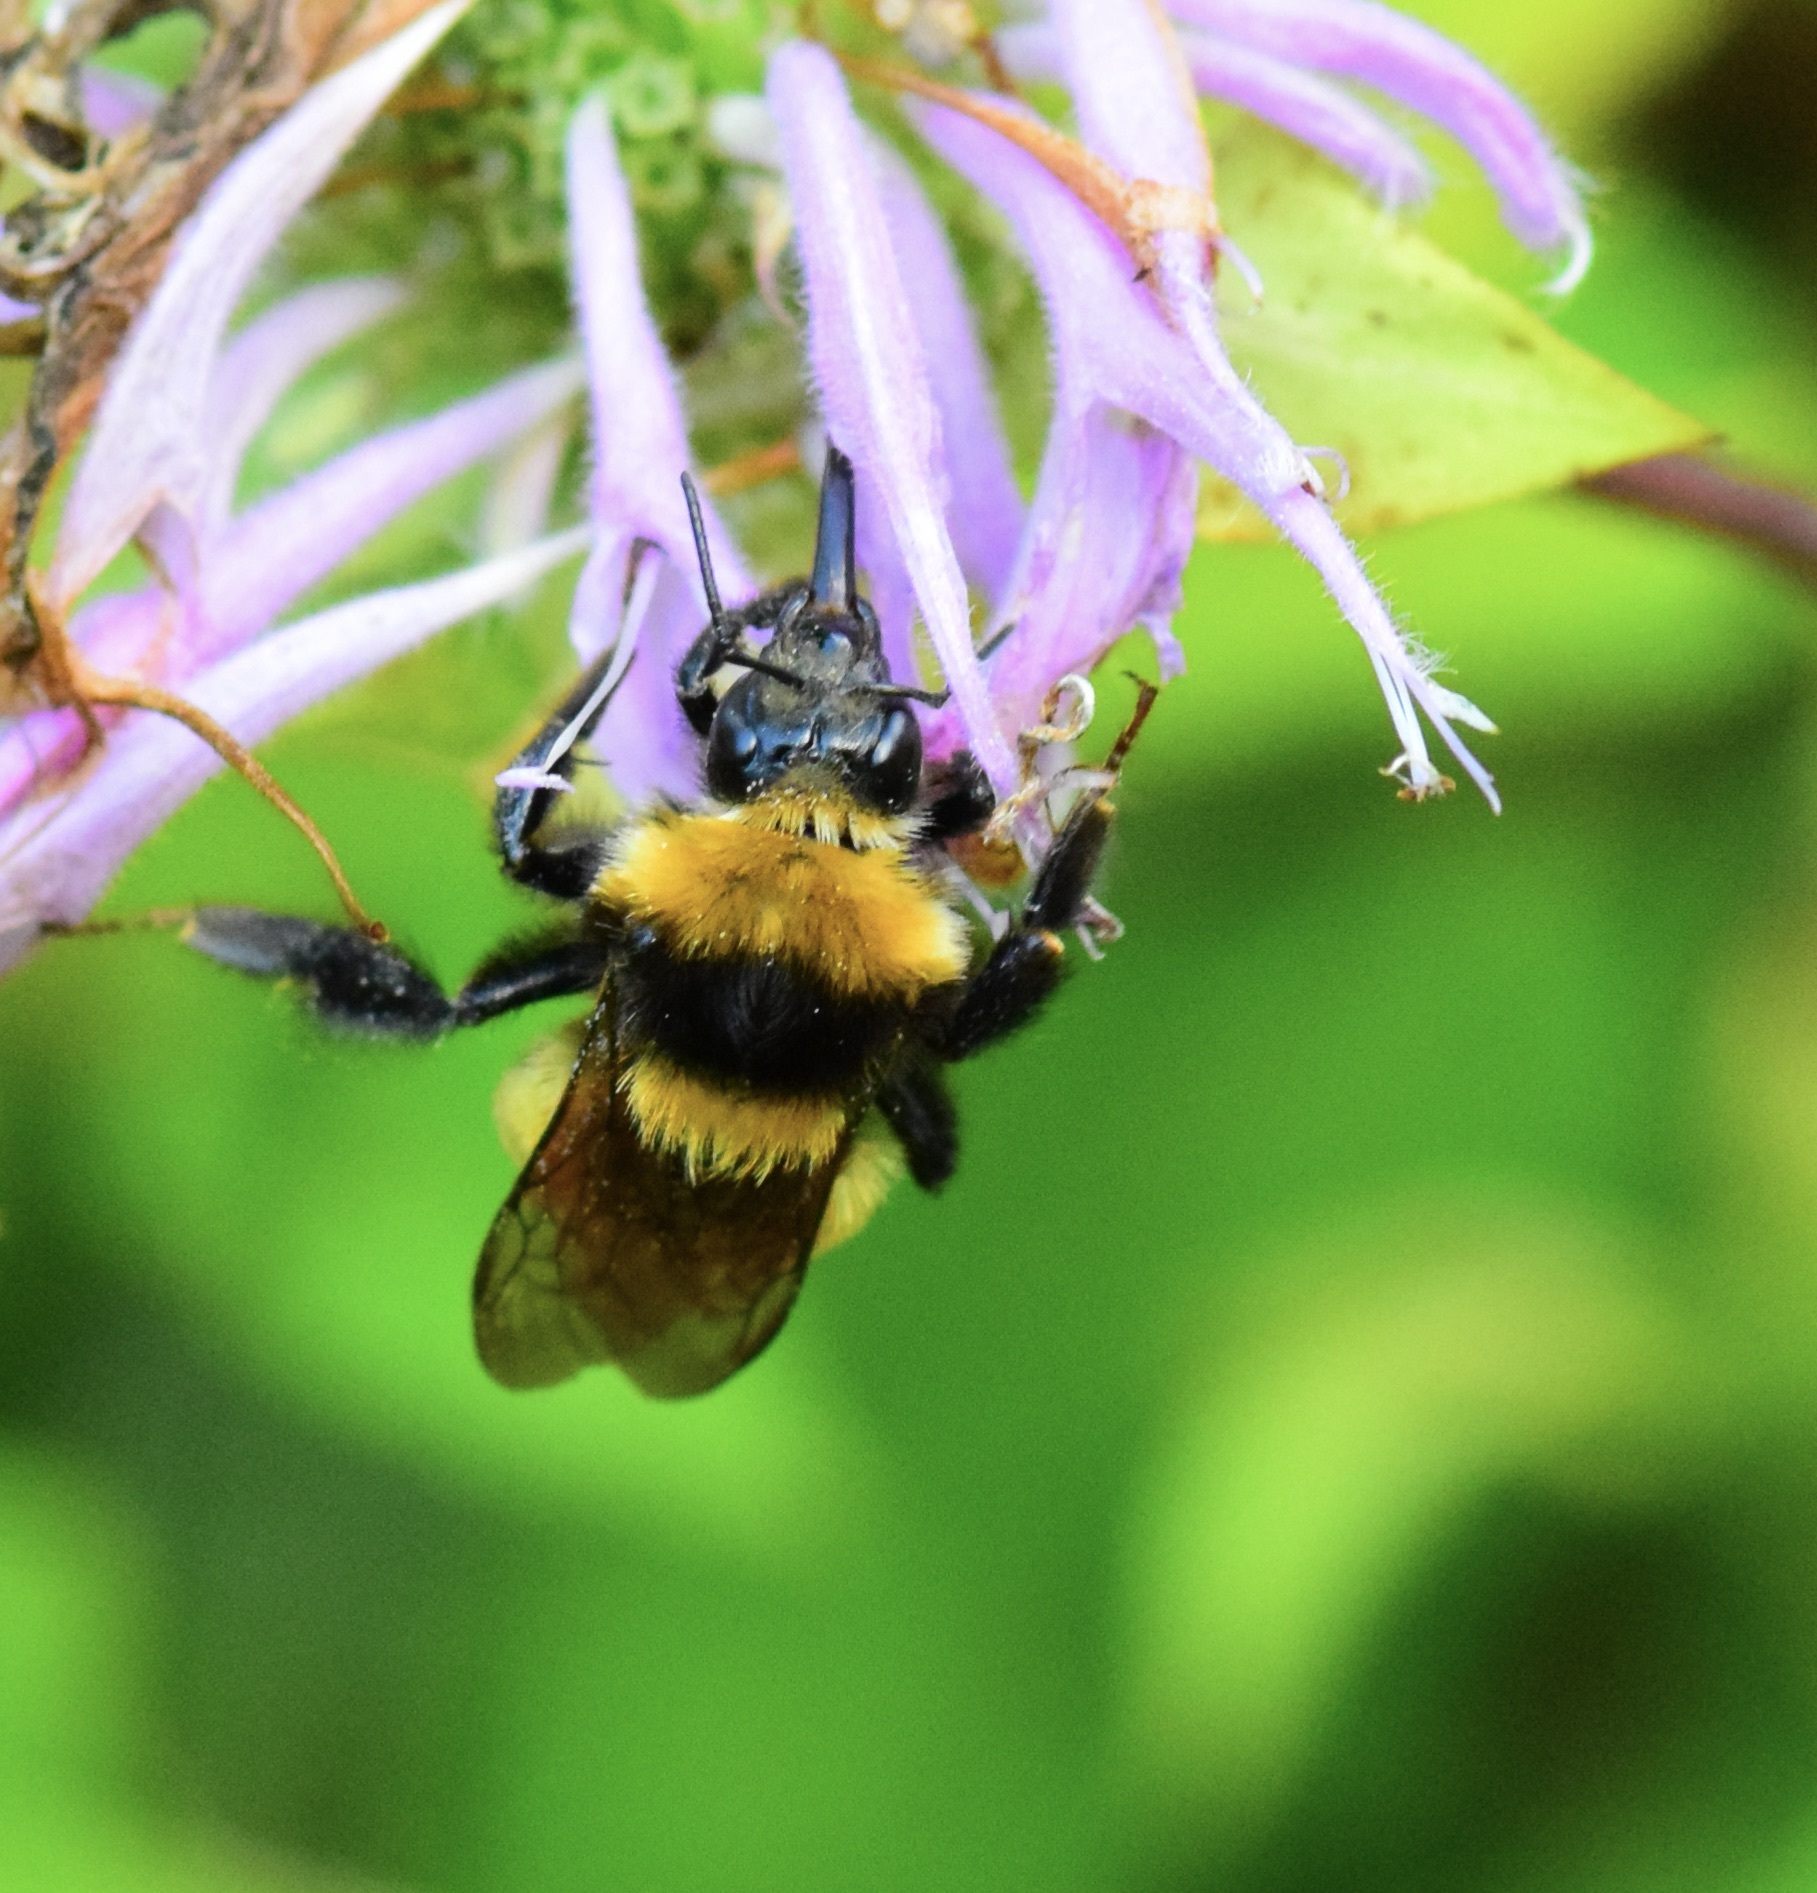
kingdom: Animalia
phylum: Arthropoda
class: Insecta
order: Hymenoptera
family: Apidae
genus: Bombus
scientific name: Bombus borealis
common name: Northern amber bumble bee
